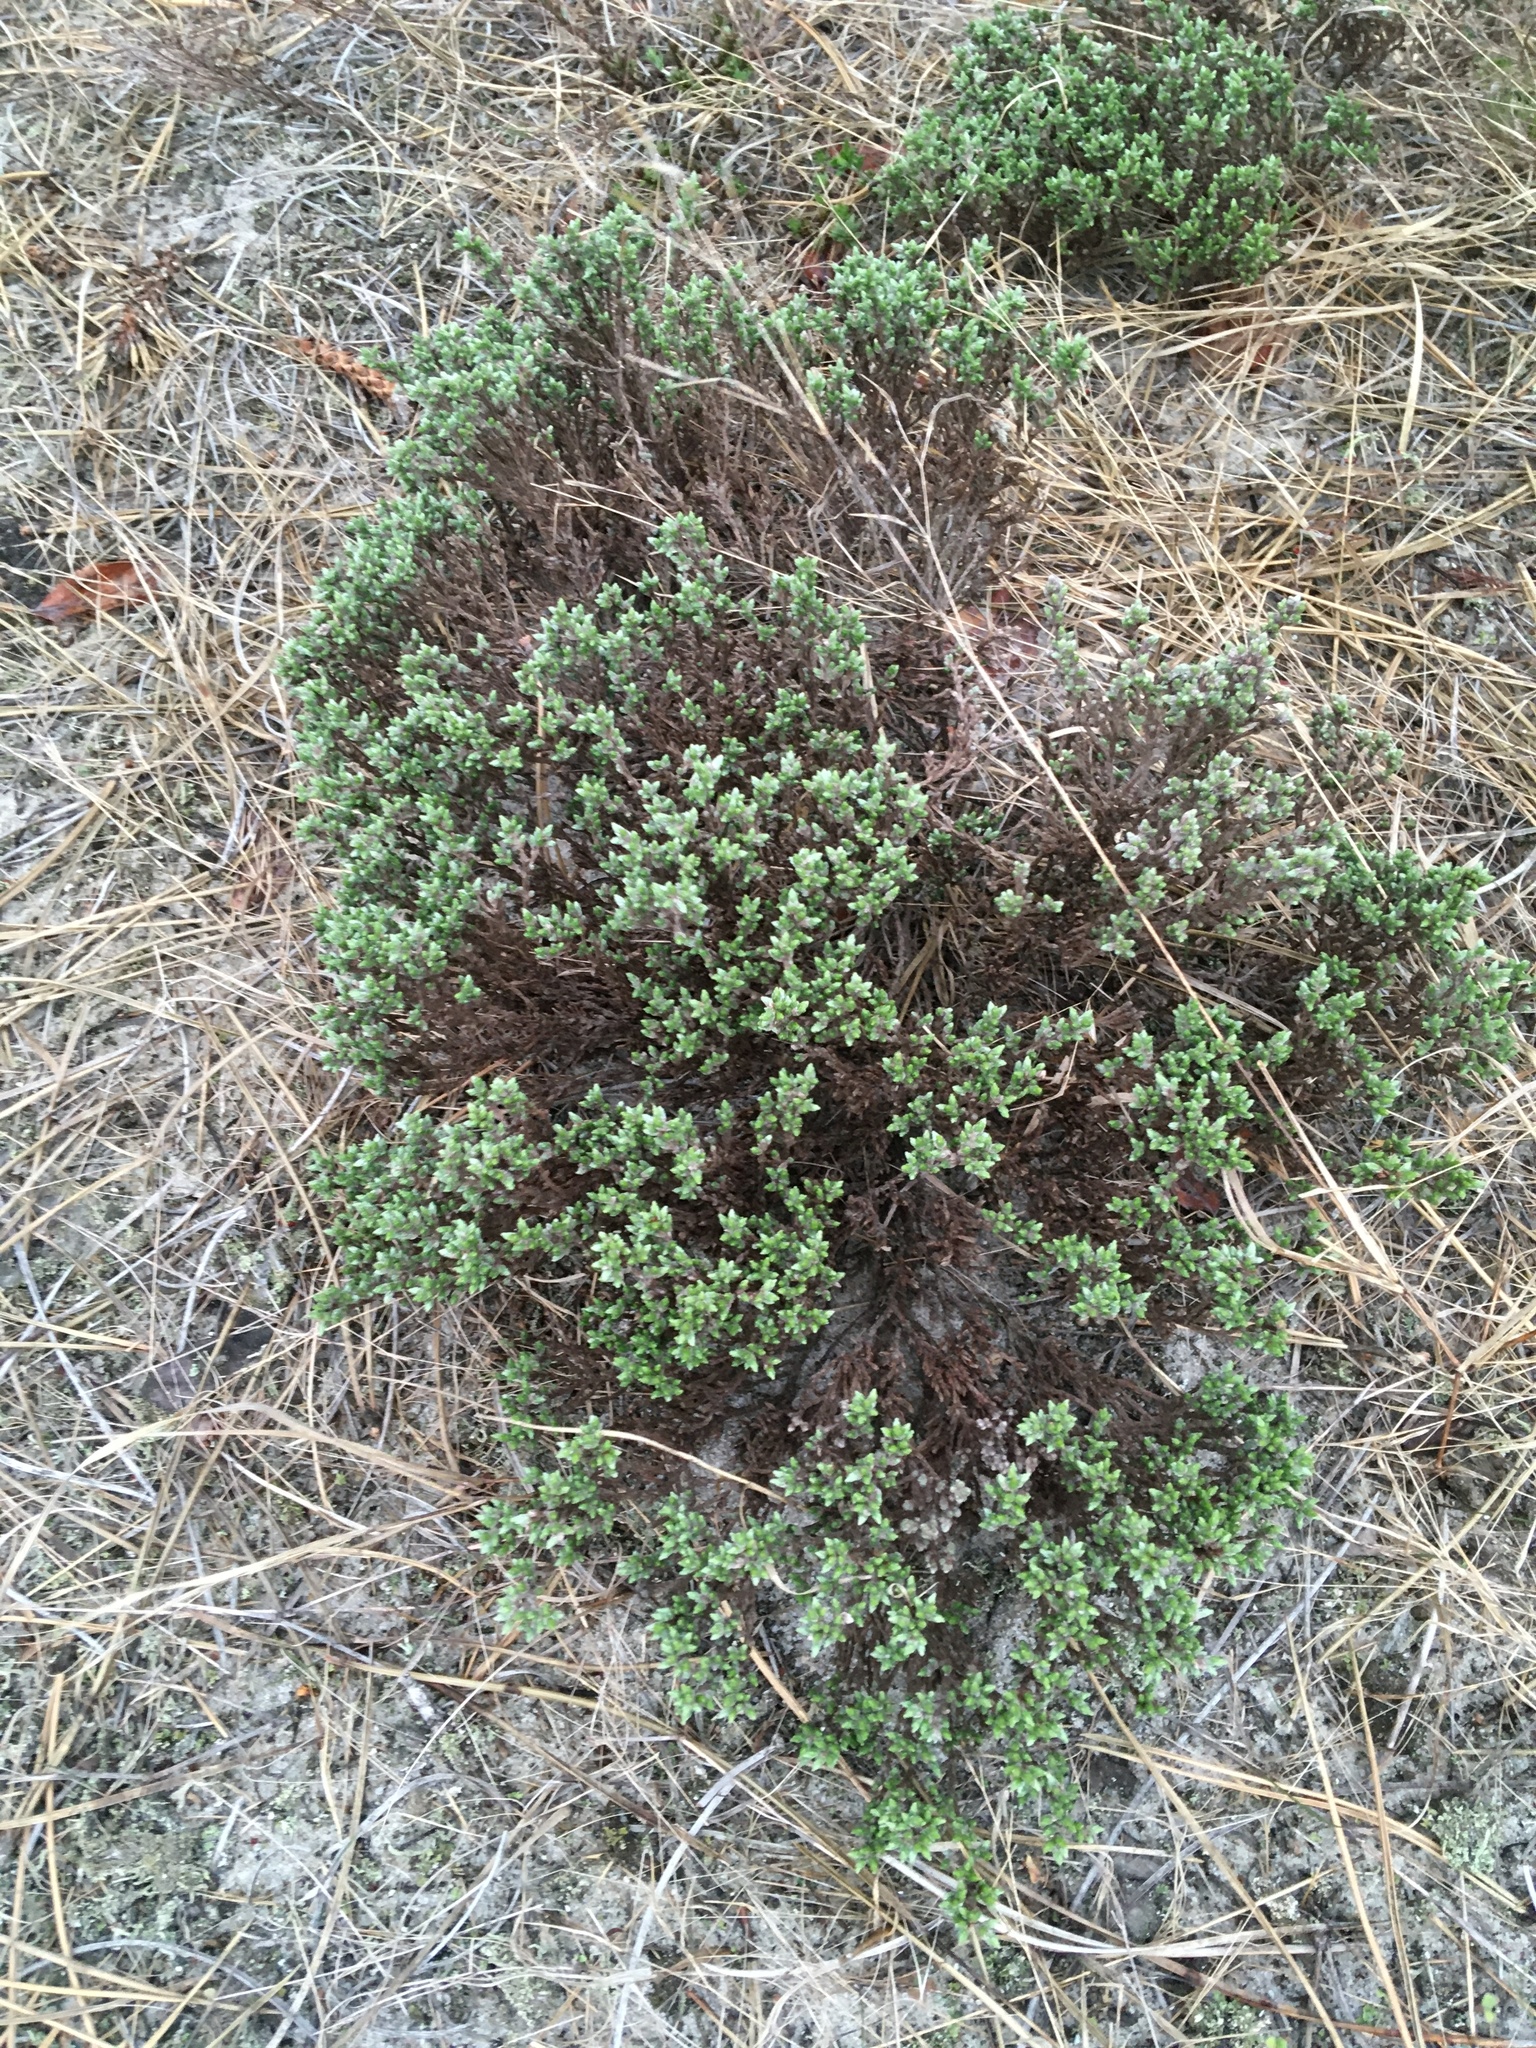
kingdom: Plantae
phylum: Tracheophyta
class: Magnoliopsida
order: Malvales
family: Cistaceae
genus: Hudsonia
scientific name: Hudsonia tomentosa
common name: Beach-heath
